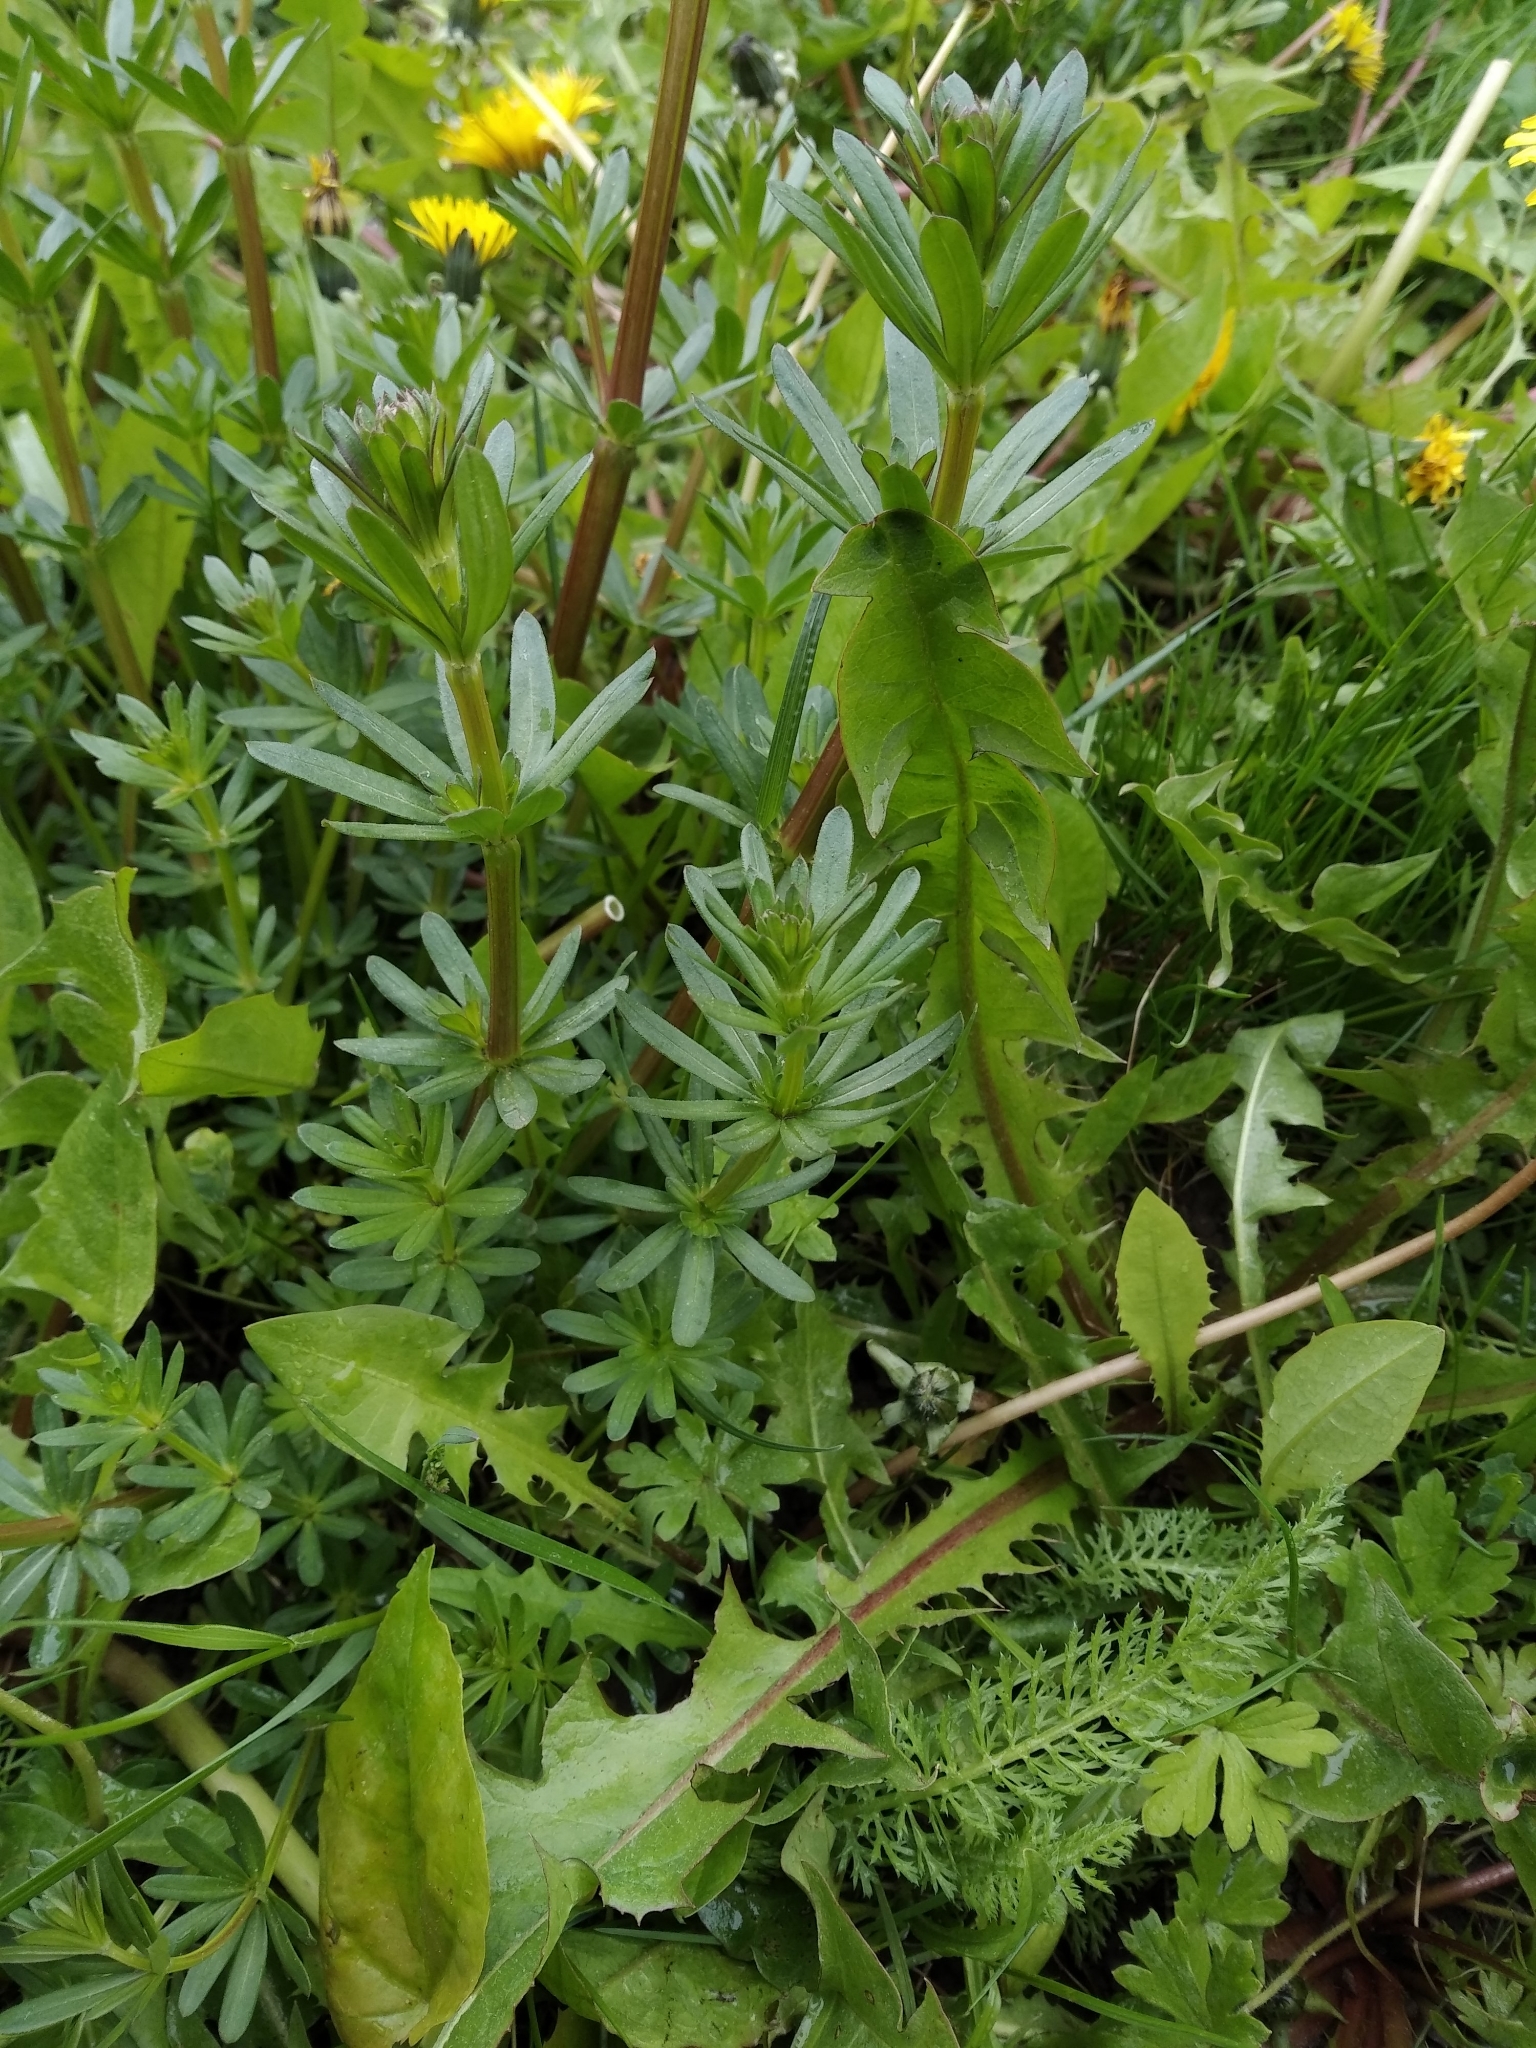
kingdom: Plantae
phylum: Tracheophyta
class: Magnoliopsida
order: Gentianales
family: Rubiaceae
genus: Galium
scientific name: Galium mollugo
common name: Hedge bedstraw
